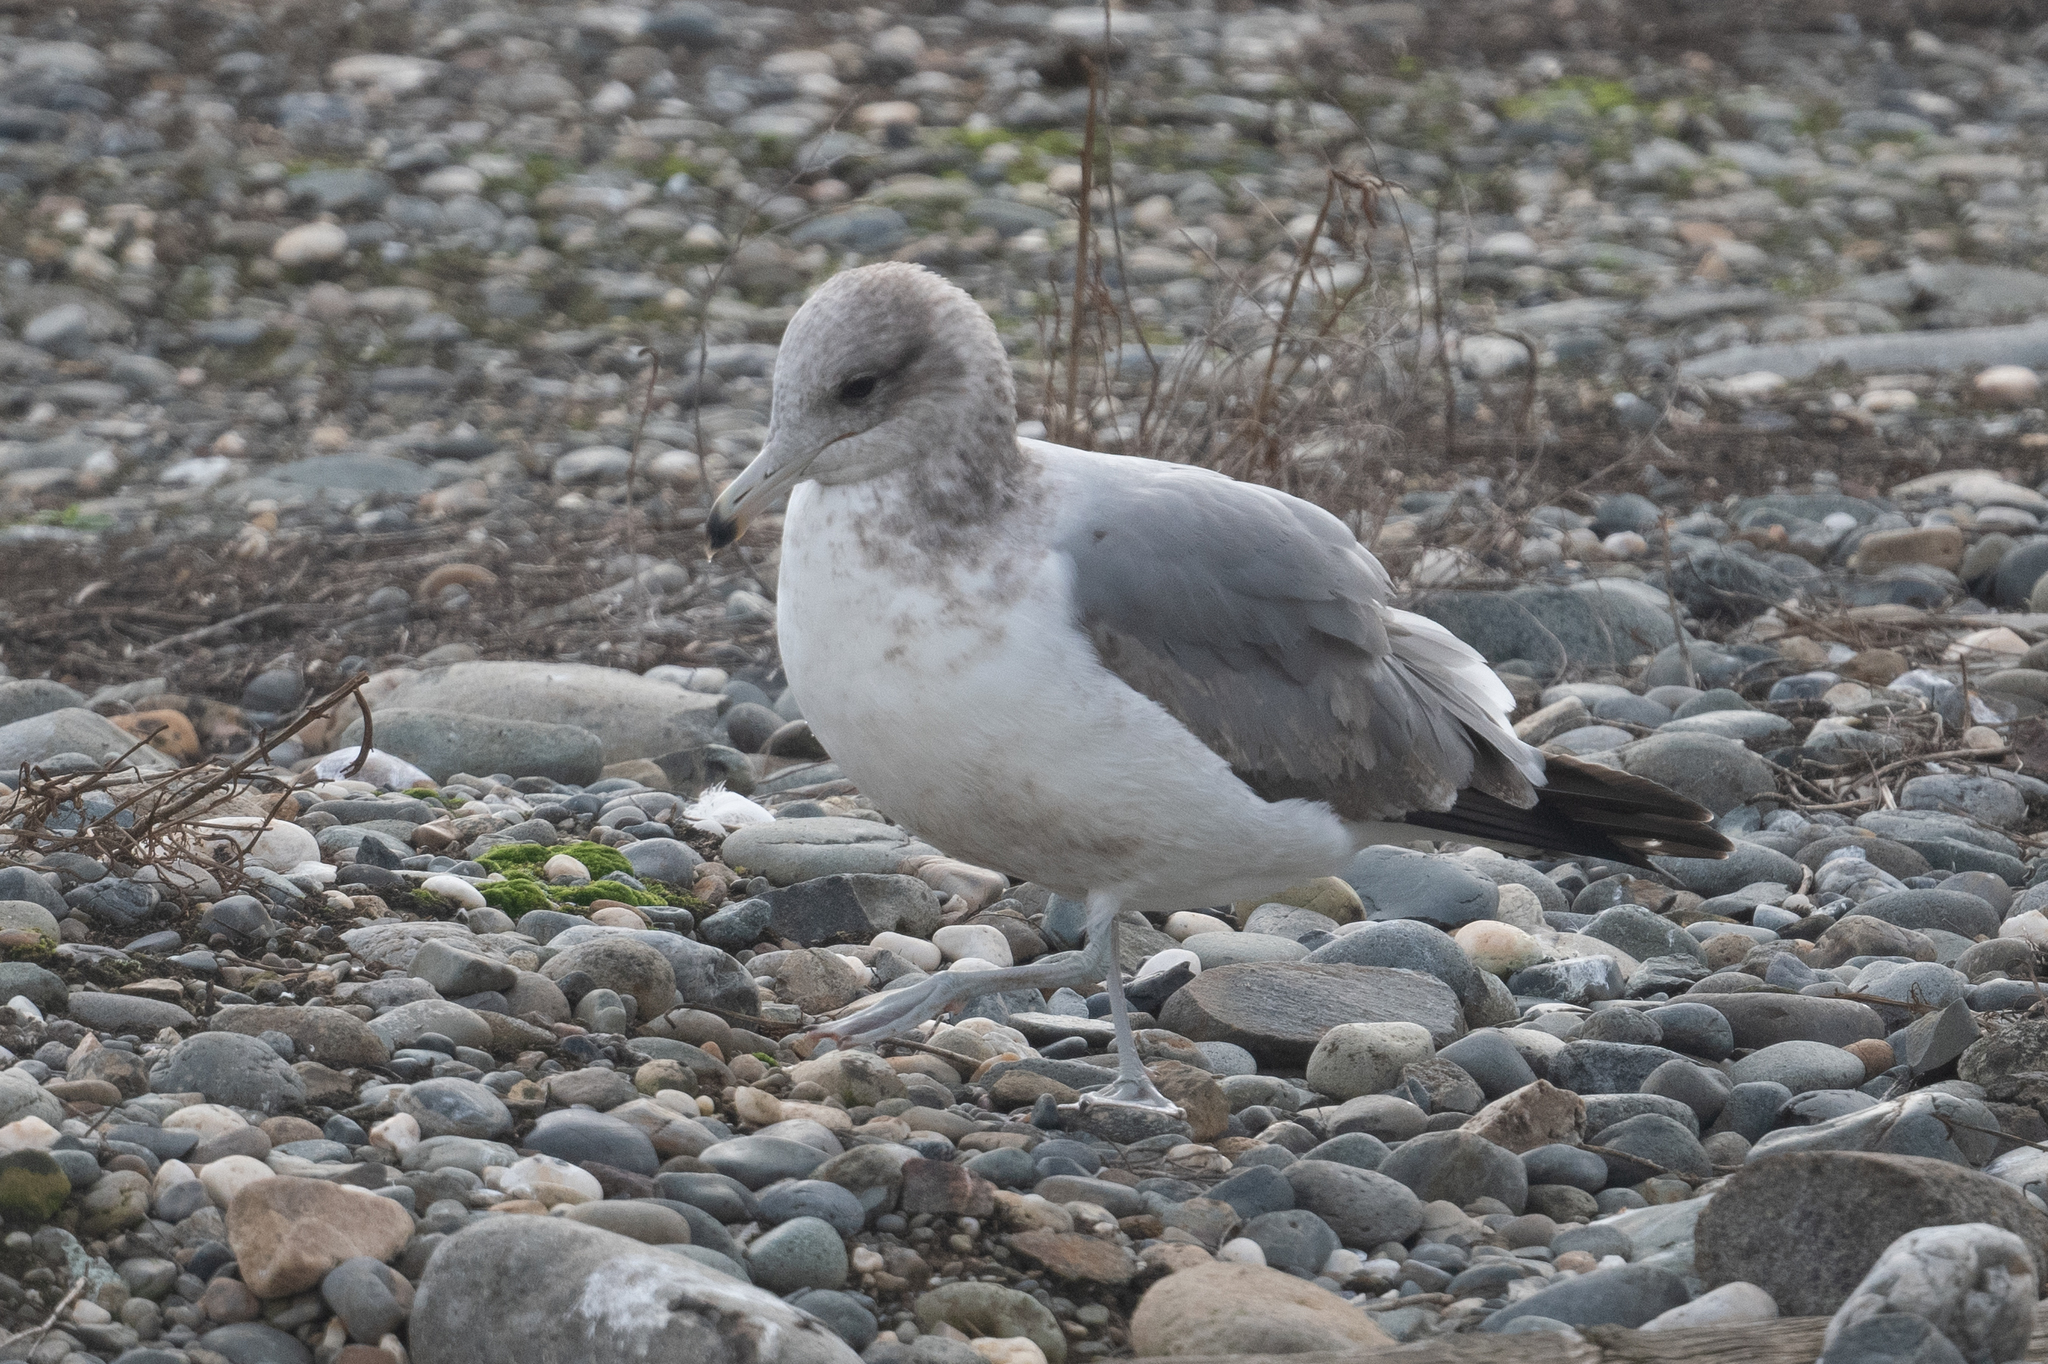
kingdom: Animalia
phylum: Chordata
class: Aves
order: Charadriiformes
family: Laridae
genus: Larus
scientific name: Larus californicus
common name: California gull
